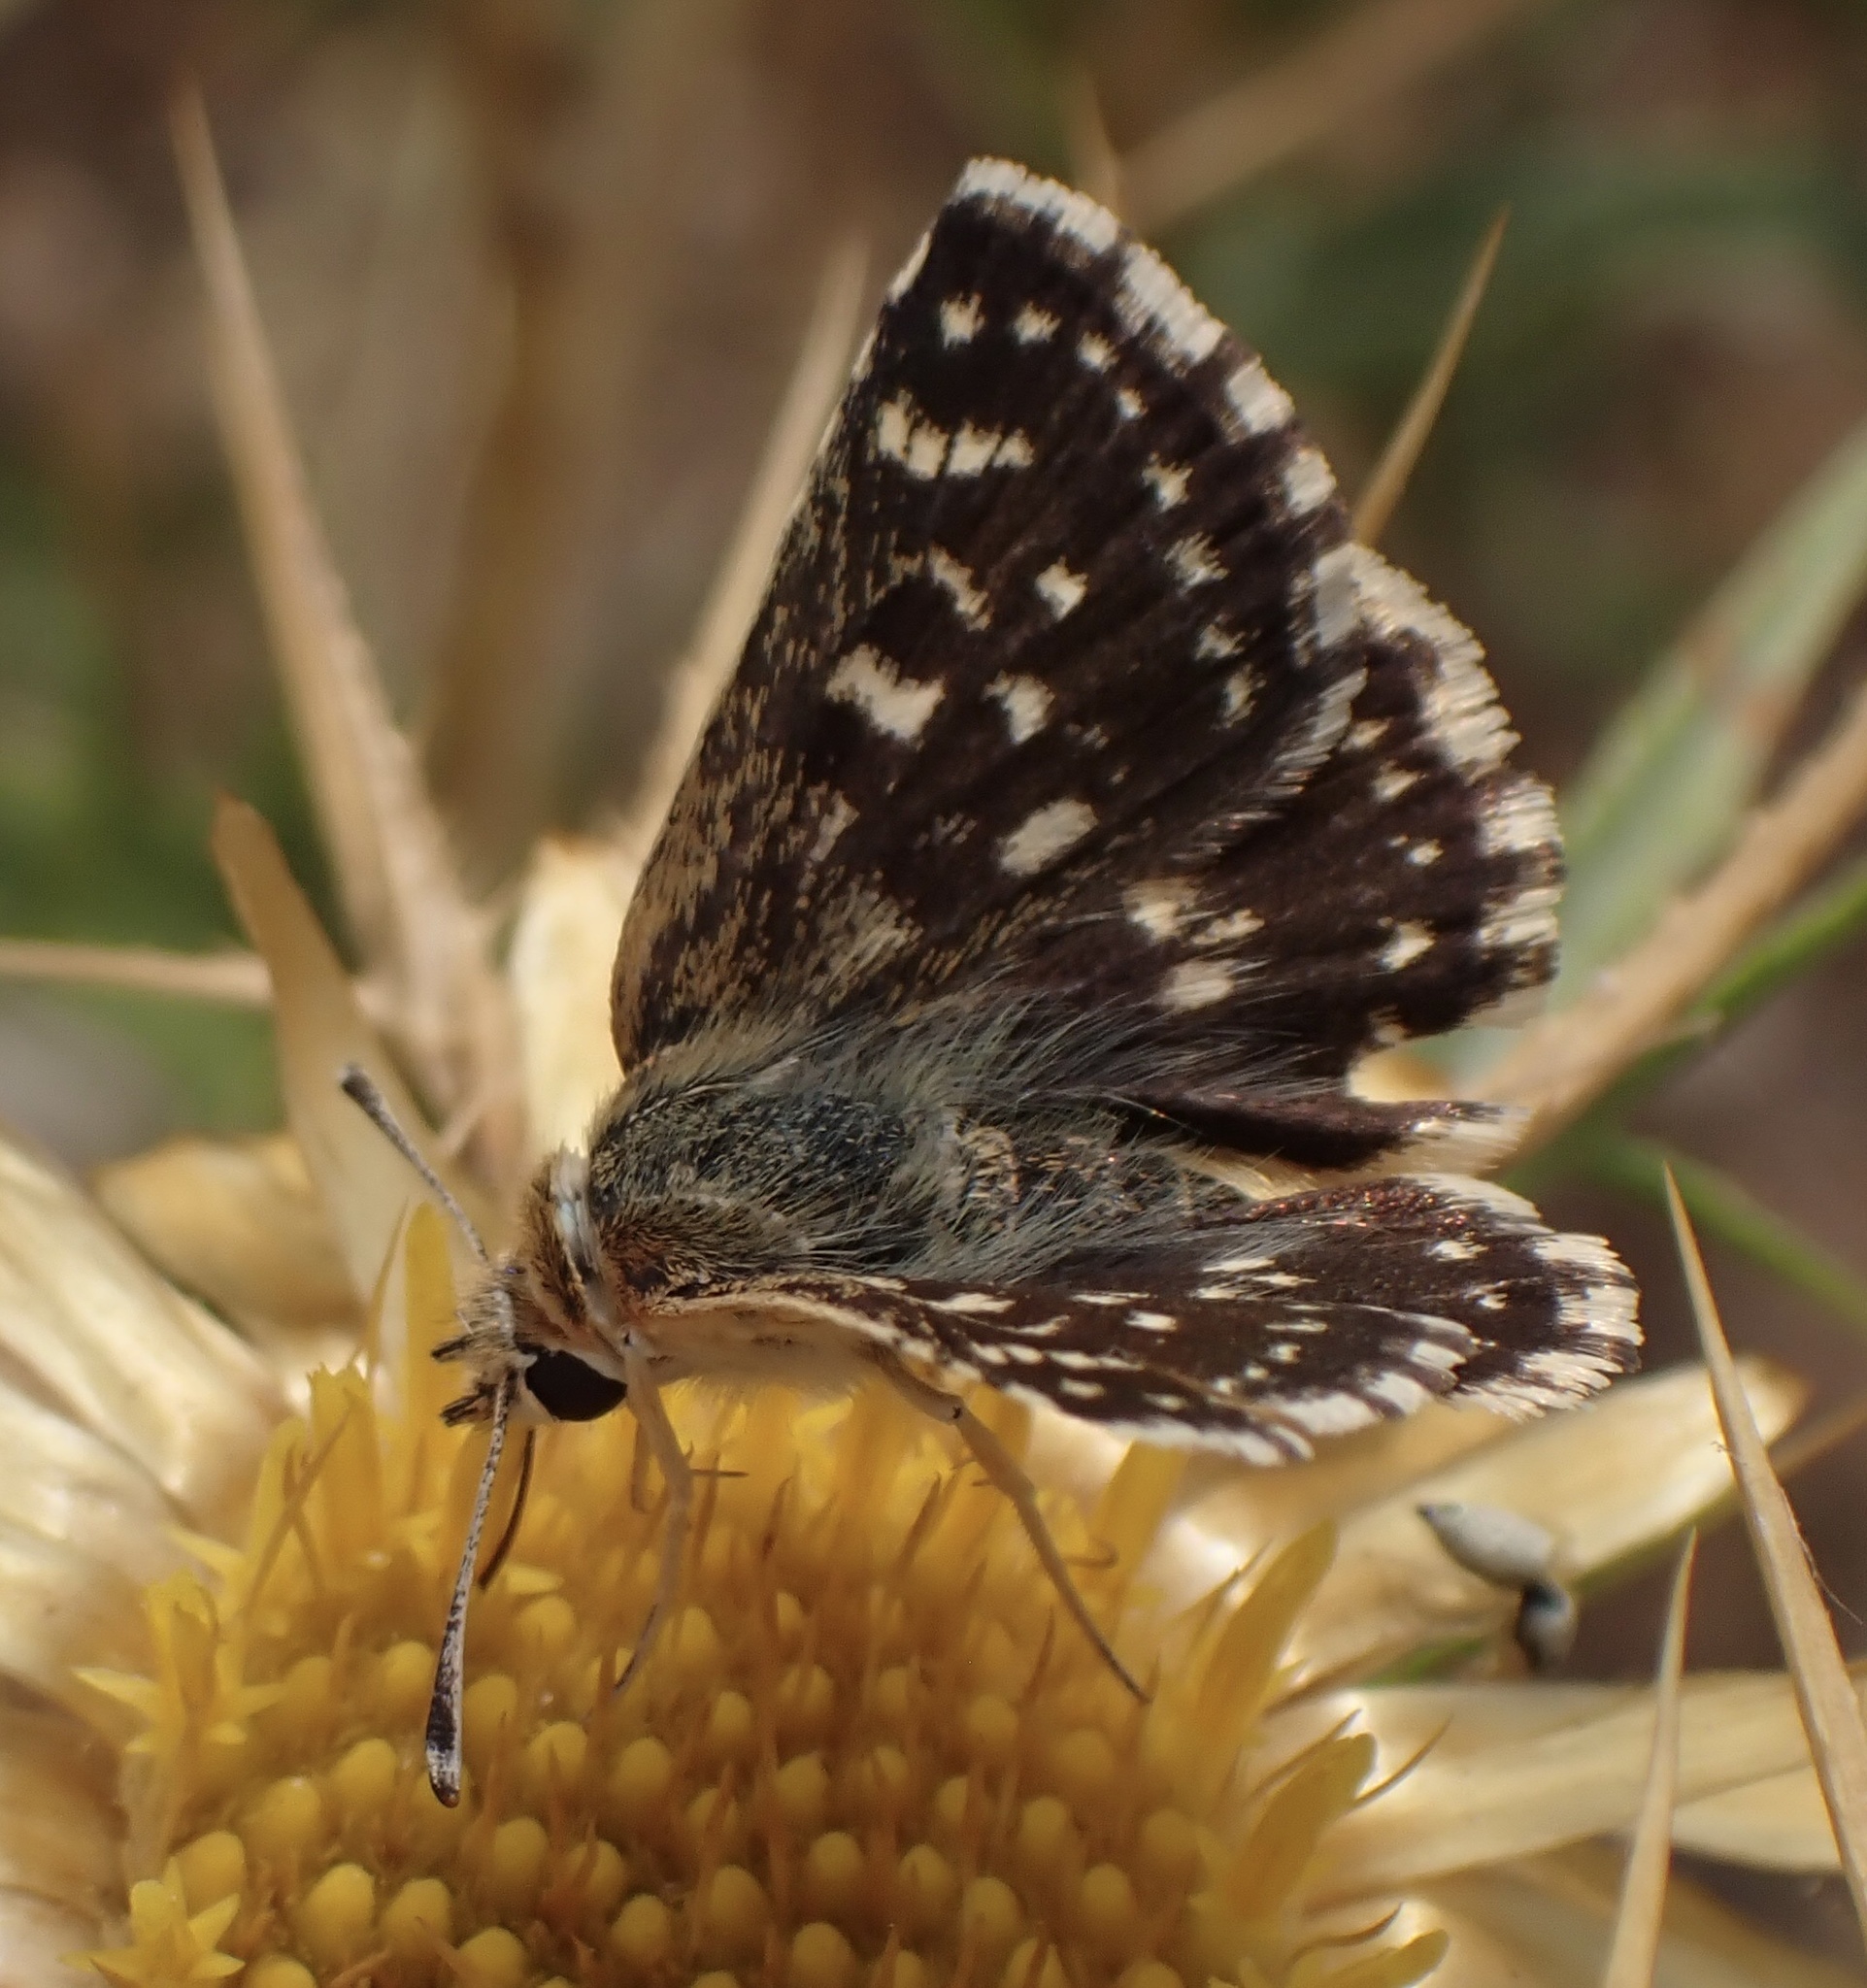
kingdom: Animalia
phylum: Arthropoda
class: Insecta
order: Lepidoptera
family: Hesperiidae
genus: Spialia
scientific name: Spialia sertorius
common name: Red underwing skipper
